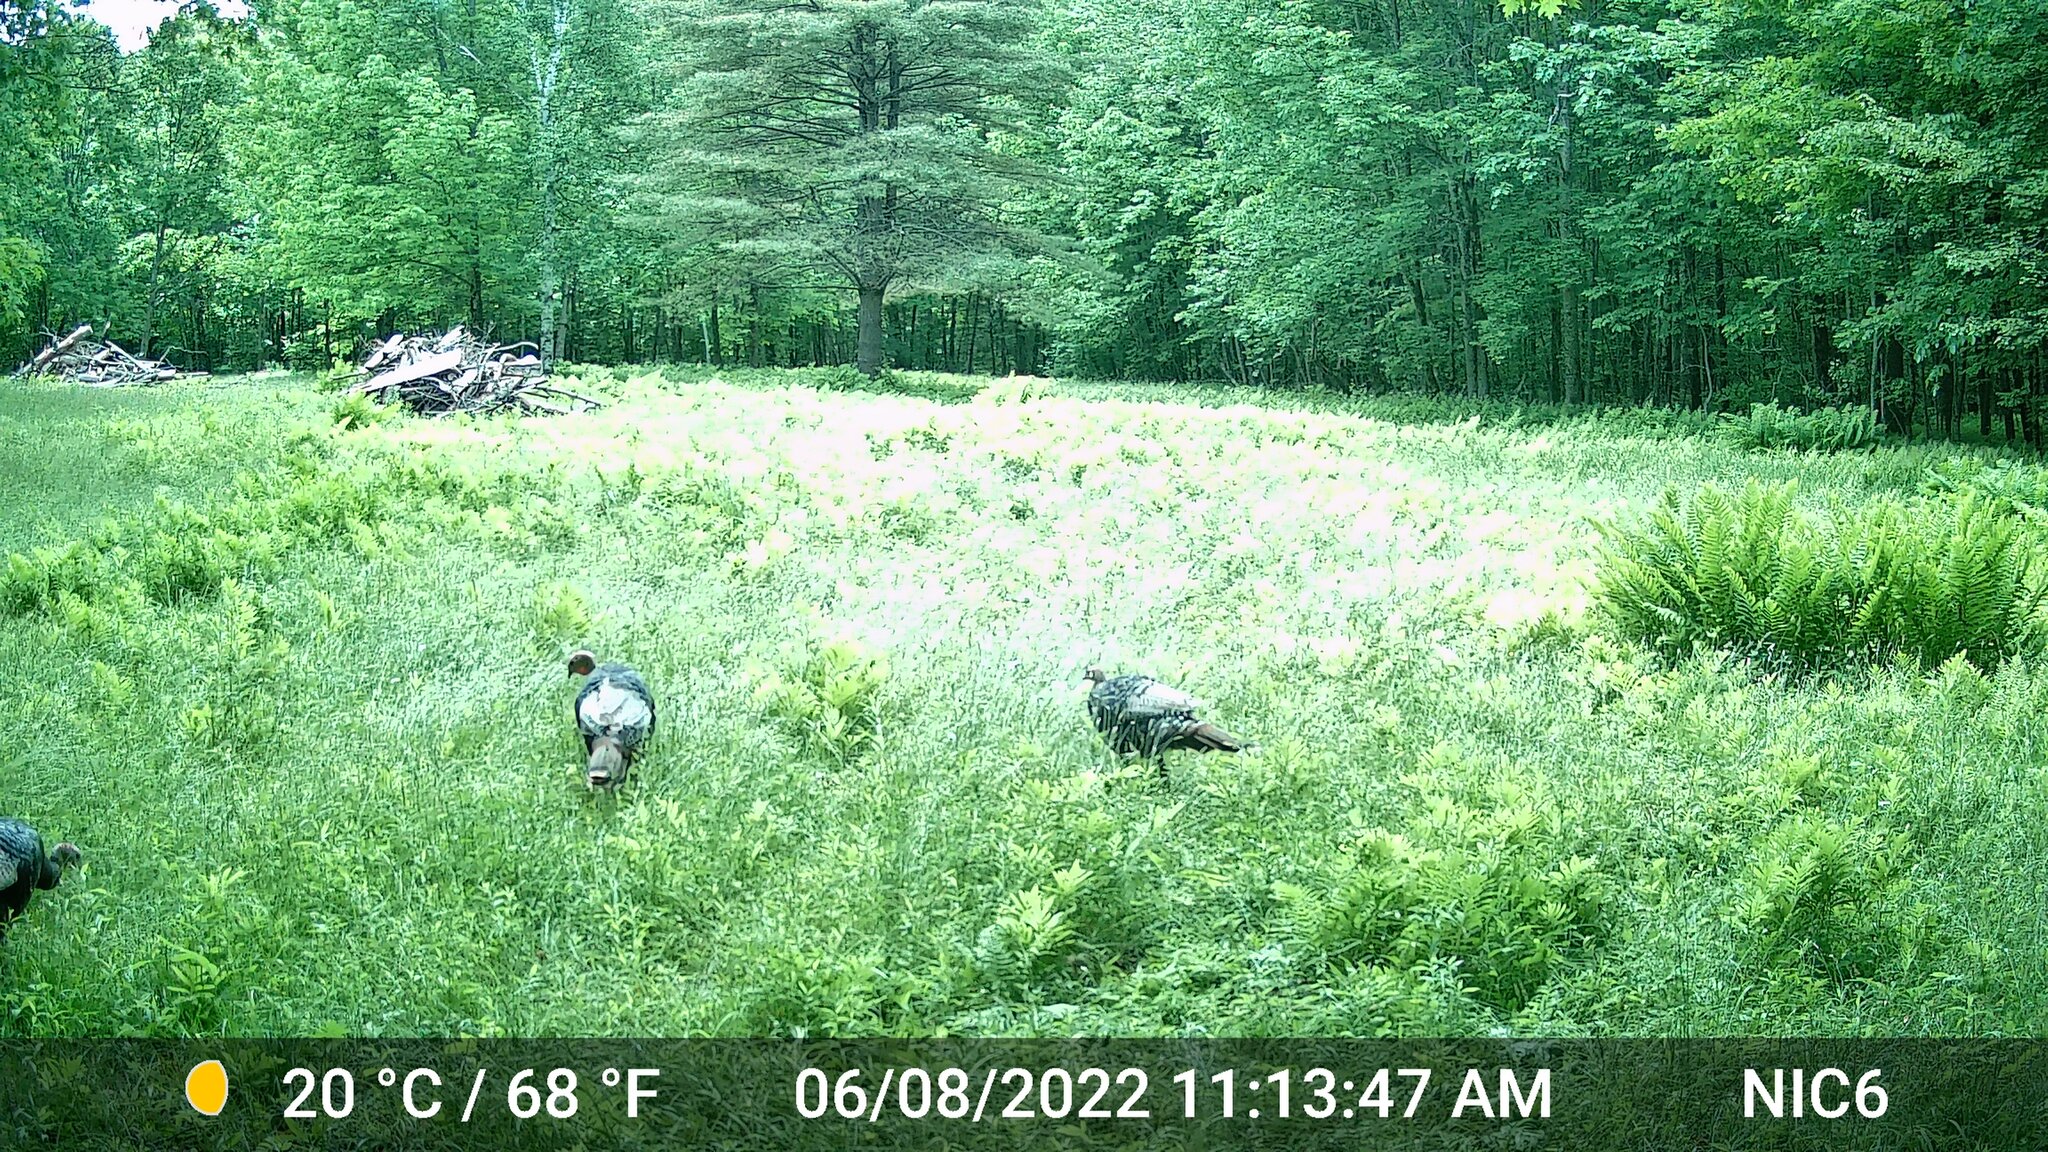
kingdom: Animalia
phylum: Chordata
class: Aves
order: Galliformes
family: Phasianidae
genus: Meleagris
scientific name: Meleagris gallopavo
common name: Wild turkey
